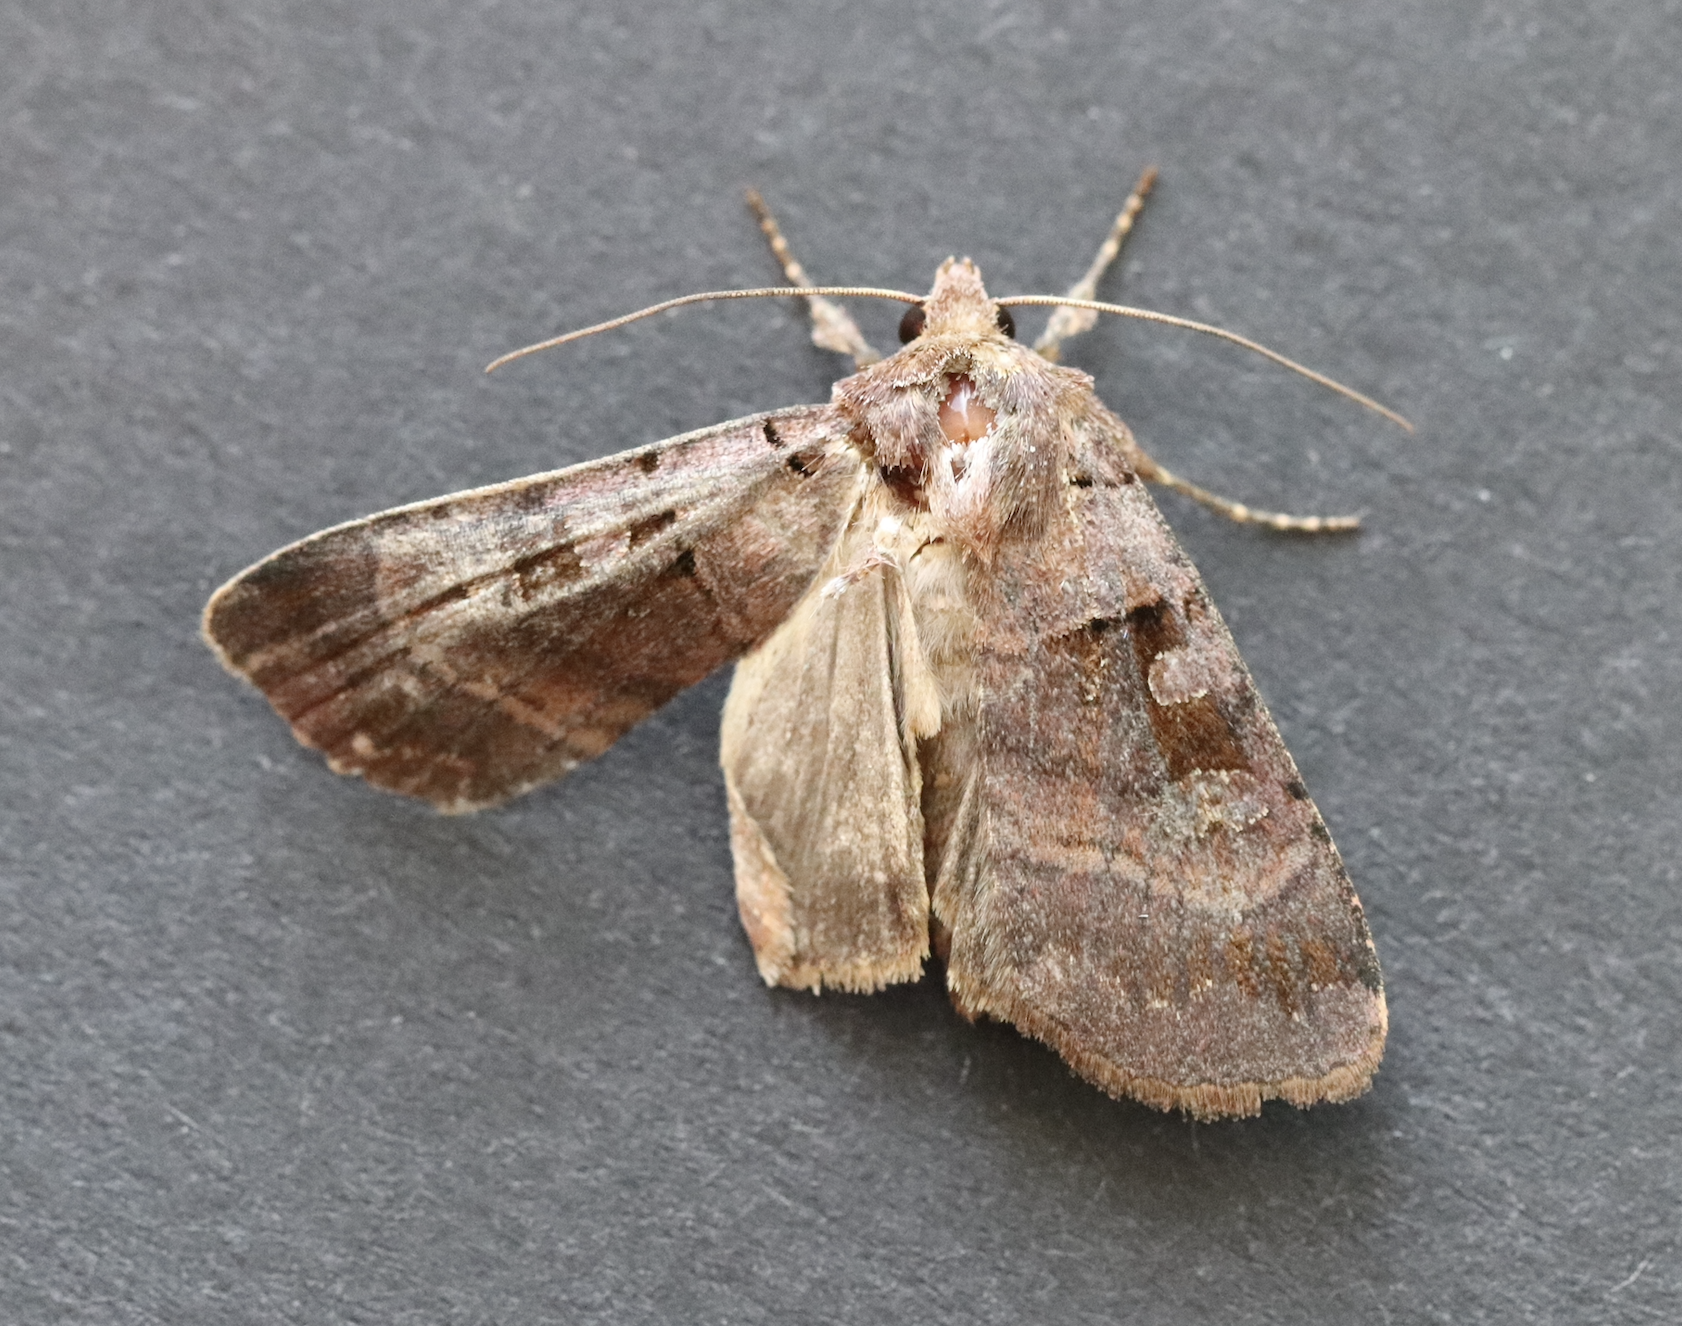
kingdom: Animalia
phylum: Arthropoda
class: Insecta
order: Lepidoptera
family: Noctuidae
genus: Xestia
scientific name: Xestia stigmatica
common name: Square-spotted clay
